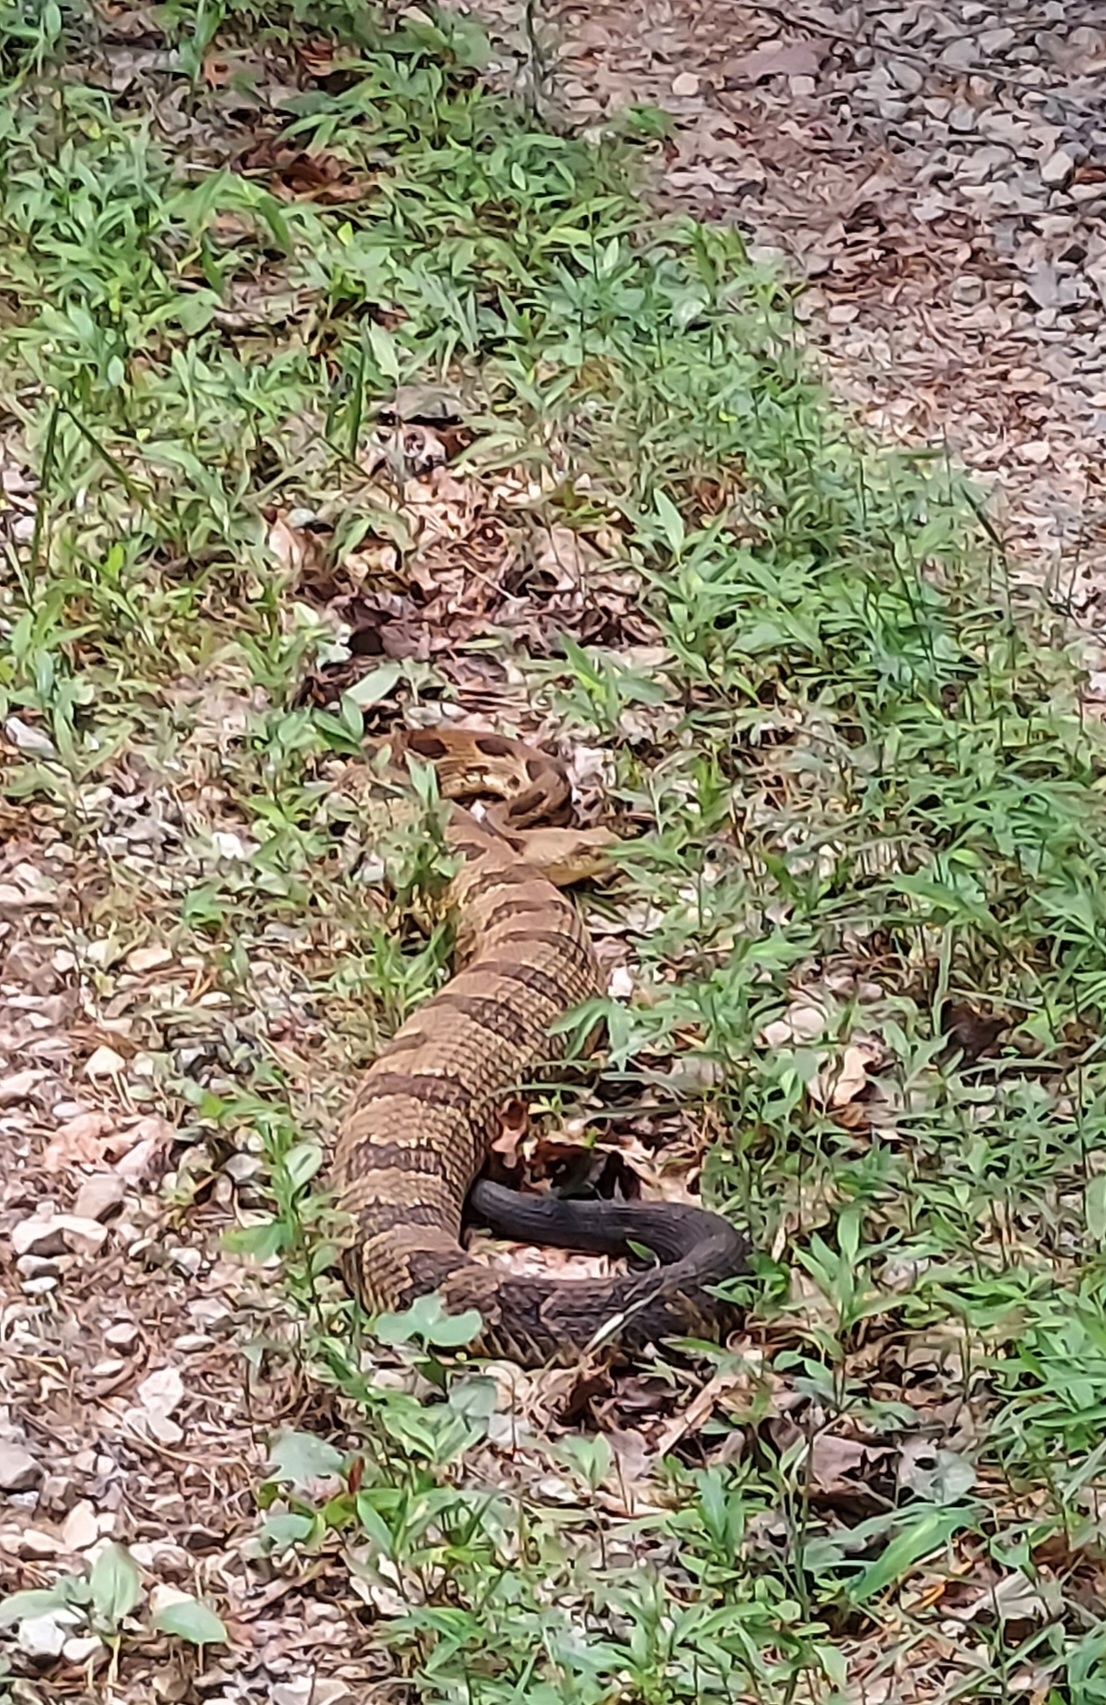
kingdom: Animalia
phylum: Chordata
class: Squamata
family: Viperidae
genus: Crotalus
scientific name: Crotalus horridus
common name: Timber rattlesnake
